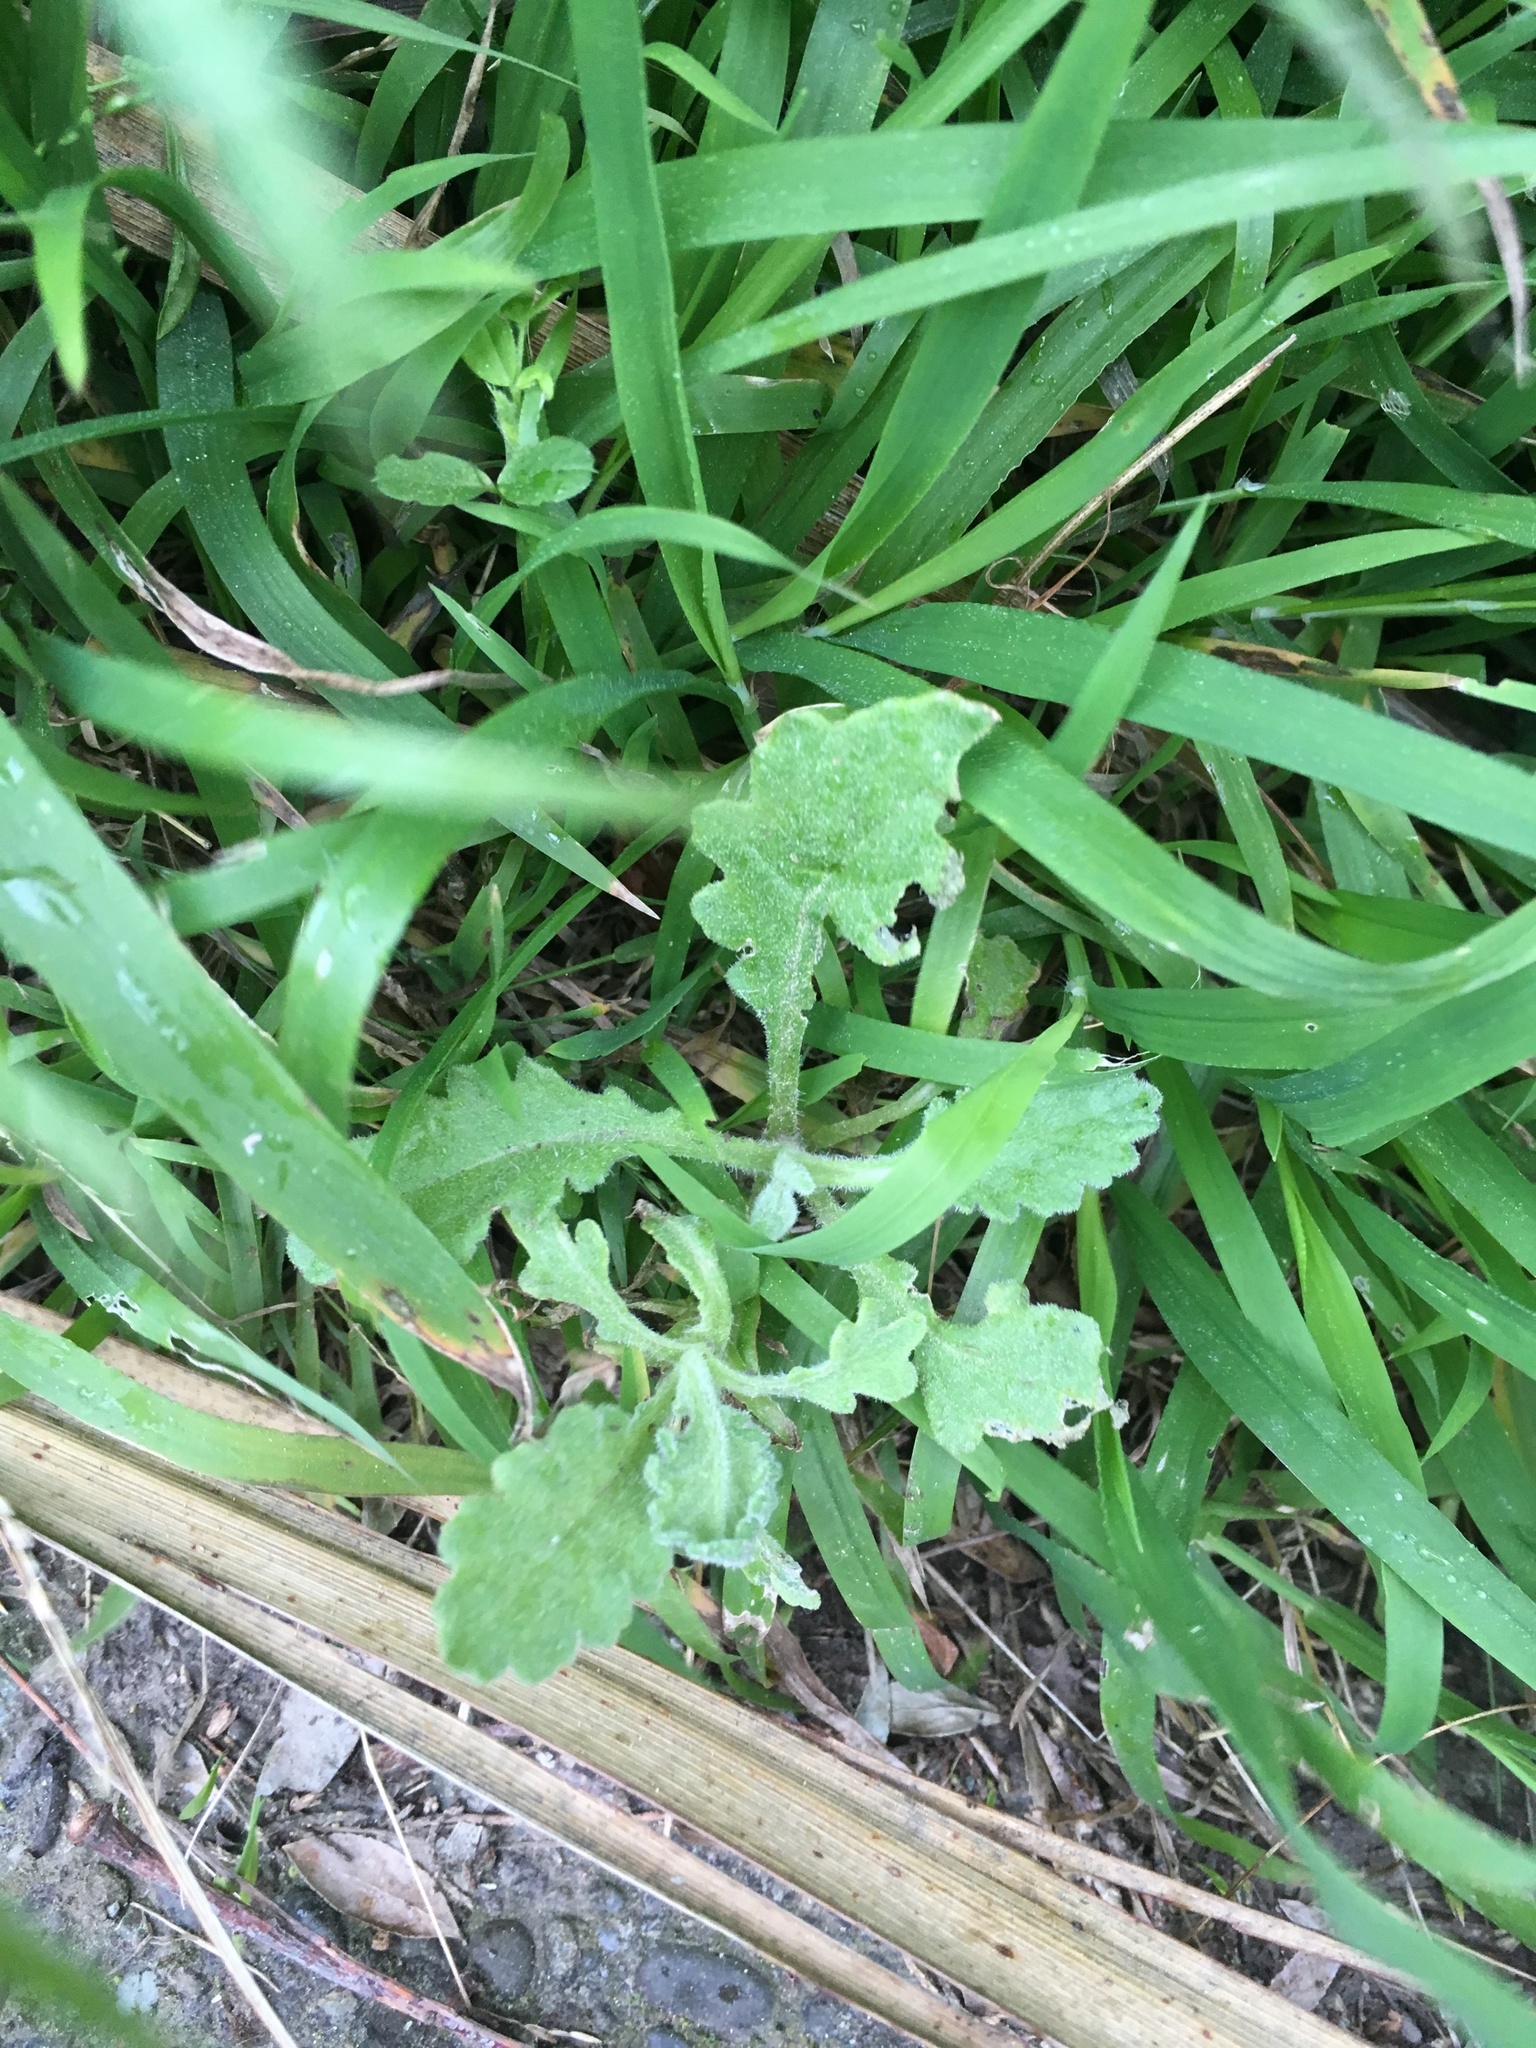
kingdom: Plantae
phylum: Tracheophyta
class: Magnoliopsida
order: Asterales
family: Asteraceae
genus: Senecio
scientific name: Senecio glomeratus
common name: Cutleaf burnweed
